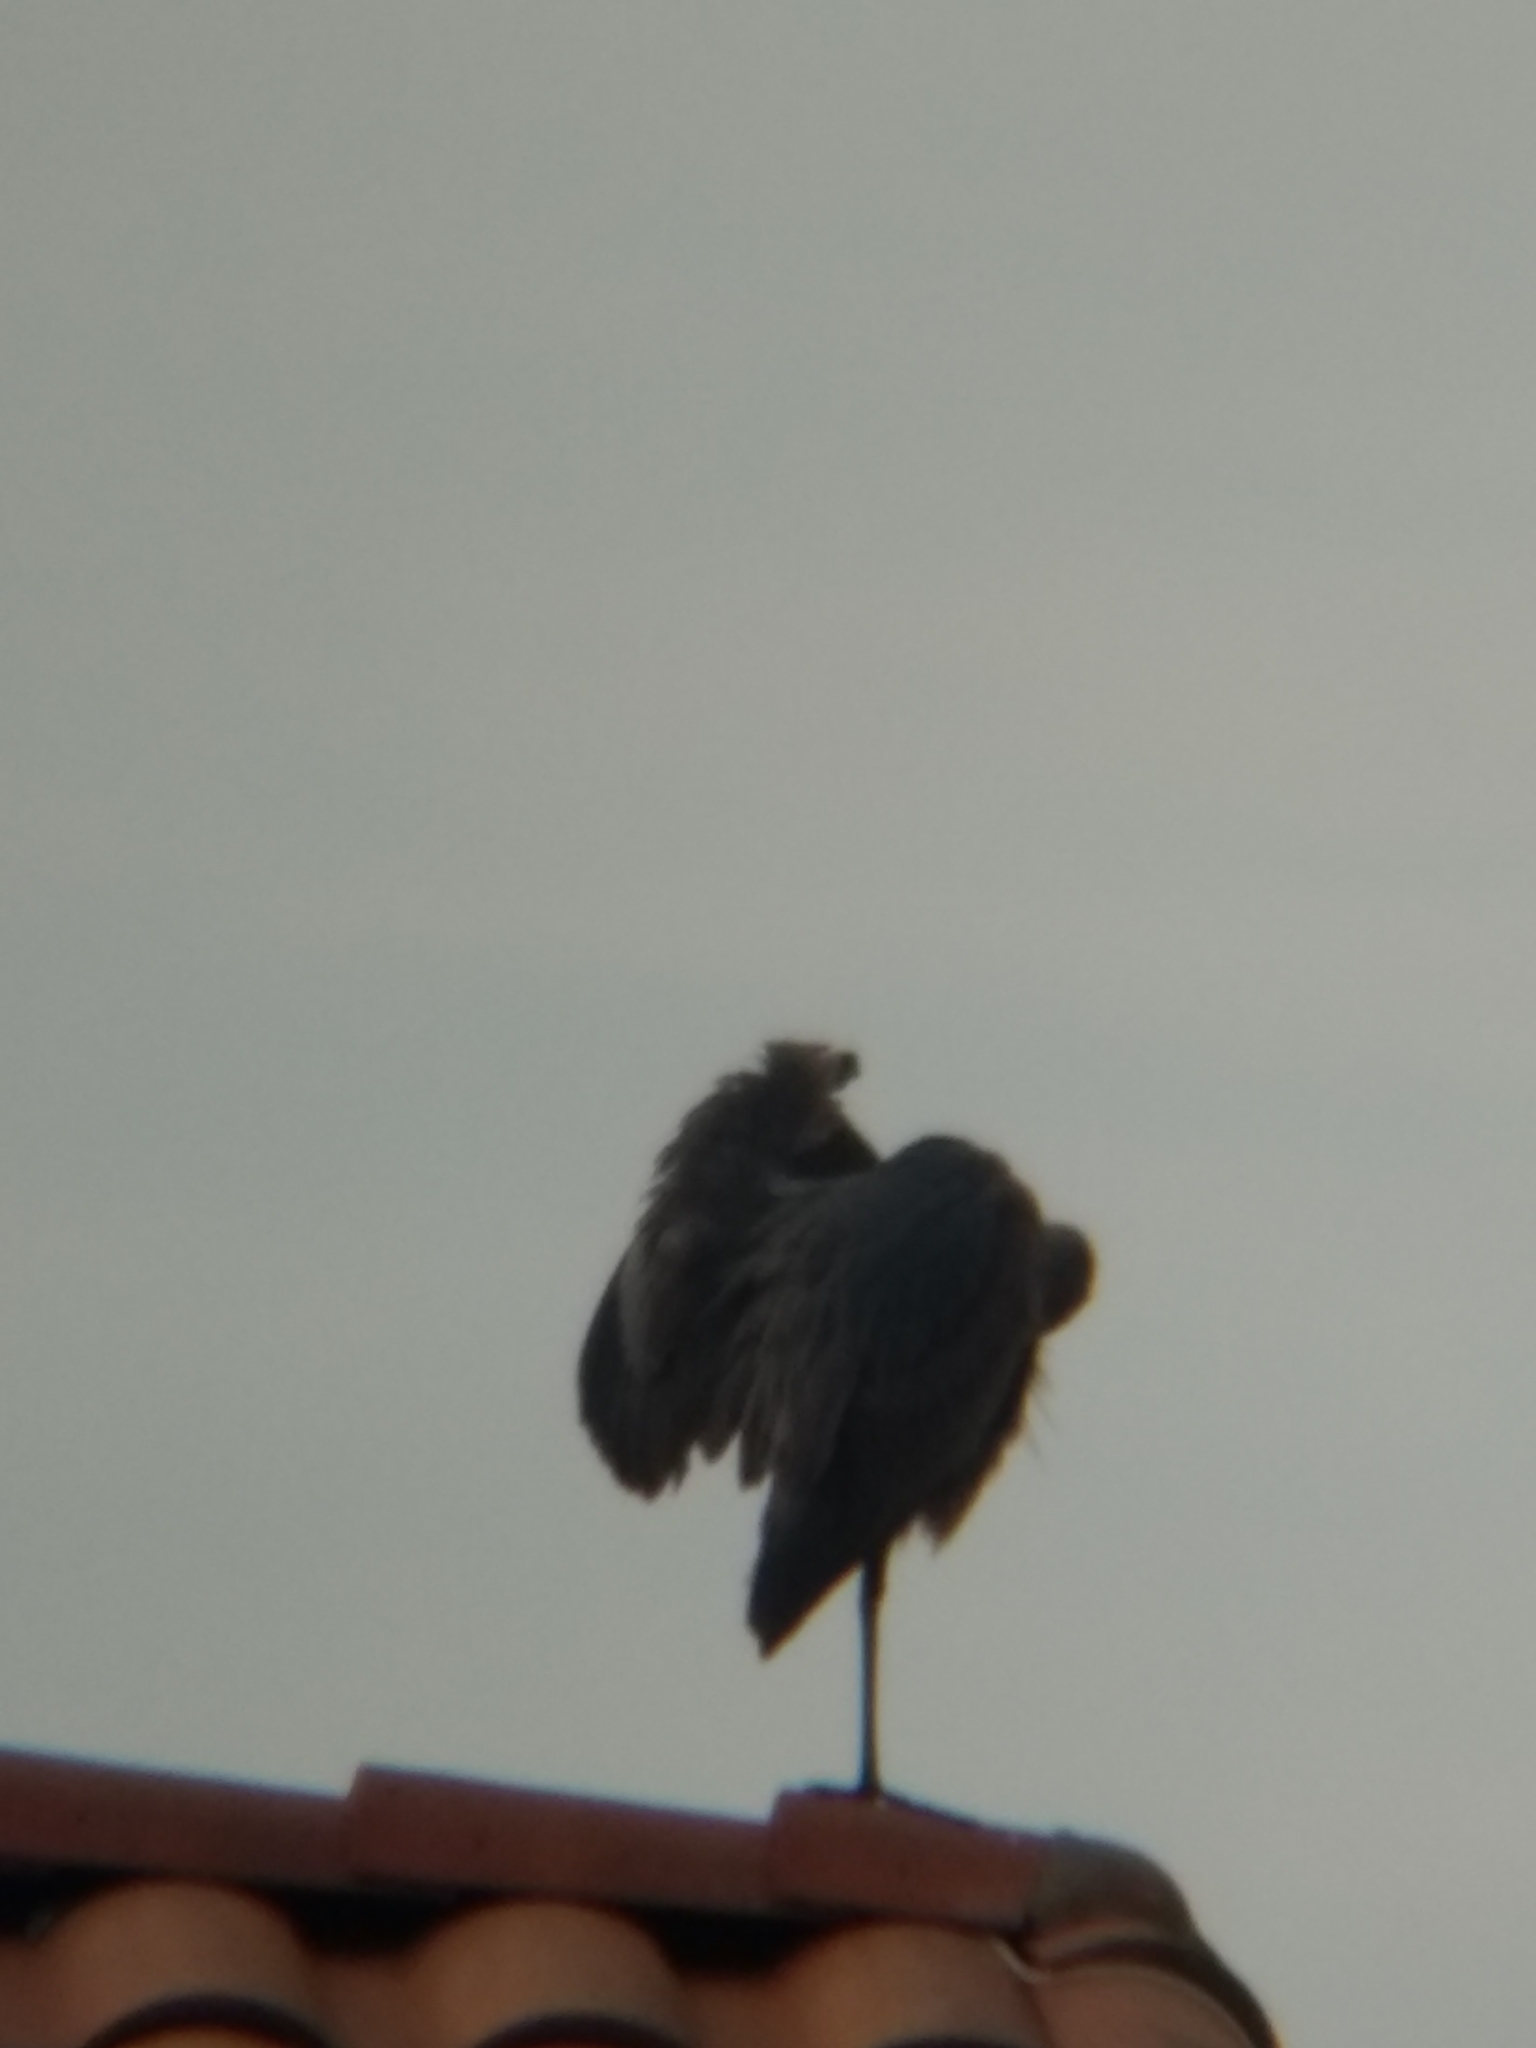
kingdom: Animalia
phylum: Chordata
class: Aves
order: Pelecaniformes
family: Ardeidae
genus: Ardea
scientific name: Ardea herodias
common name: Great blue heron
